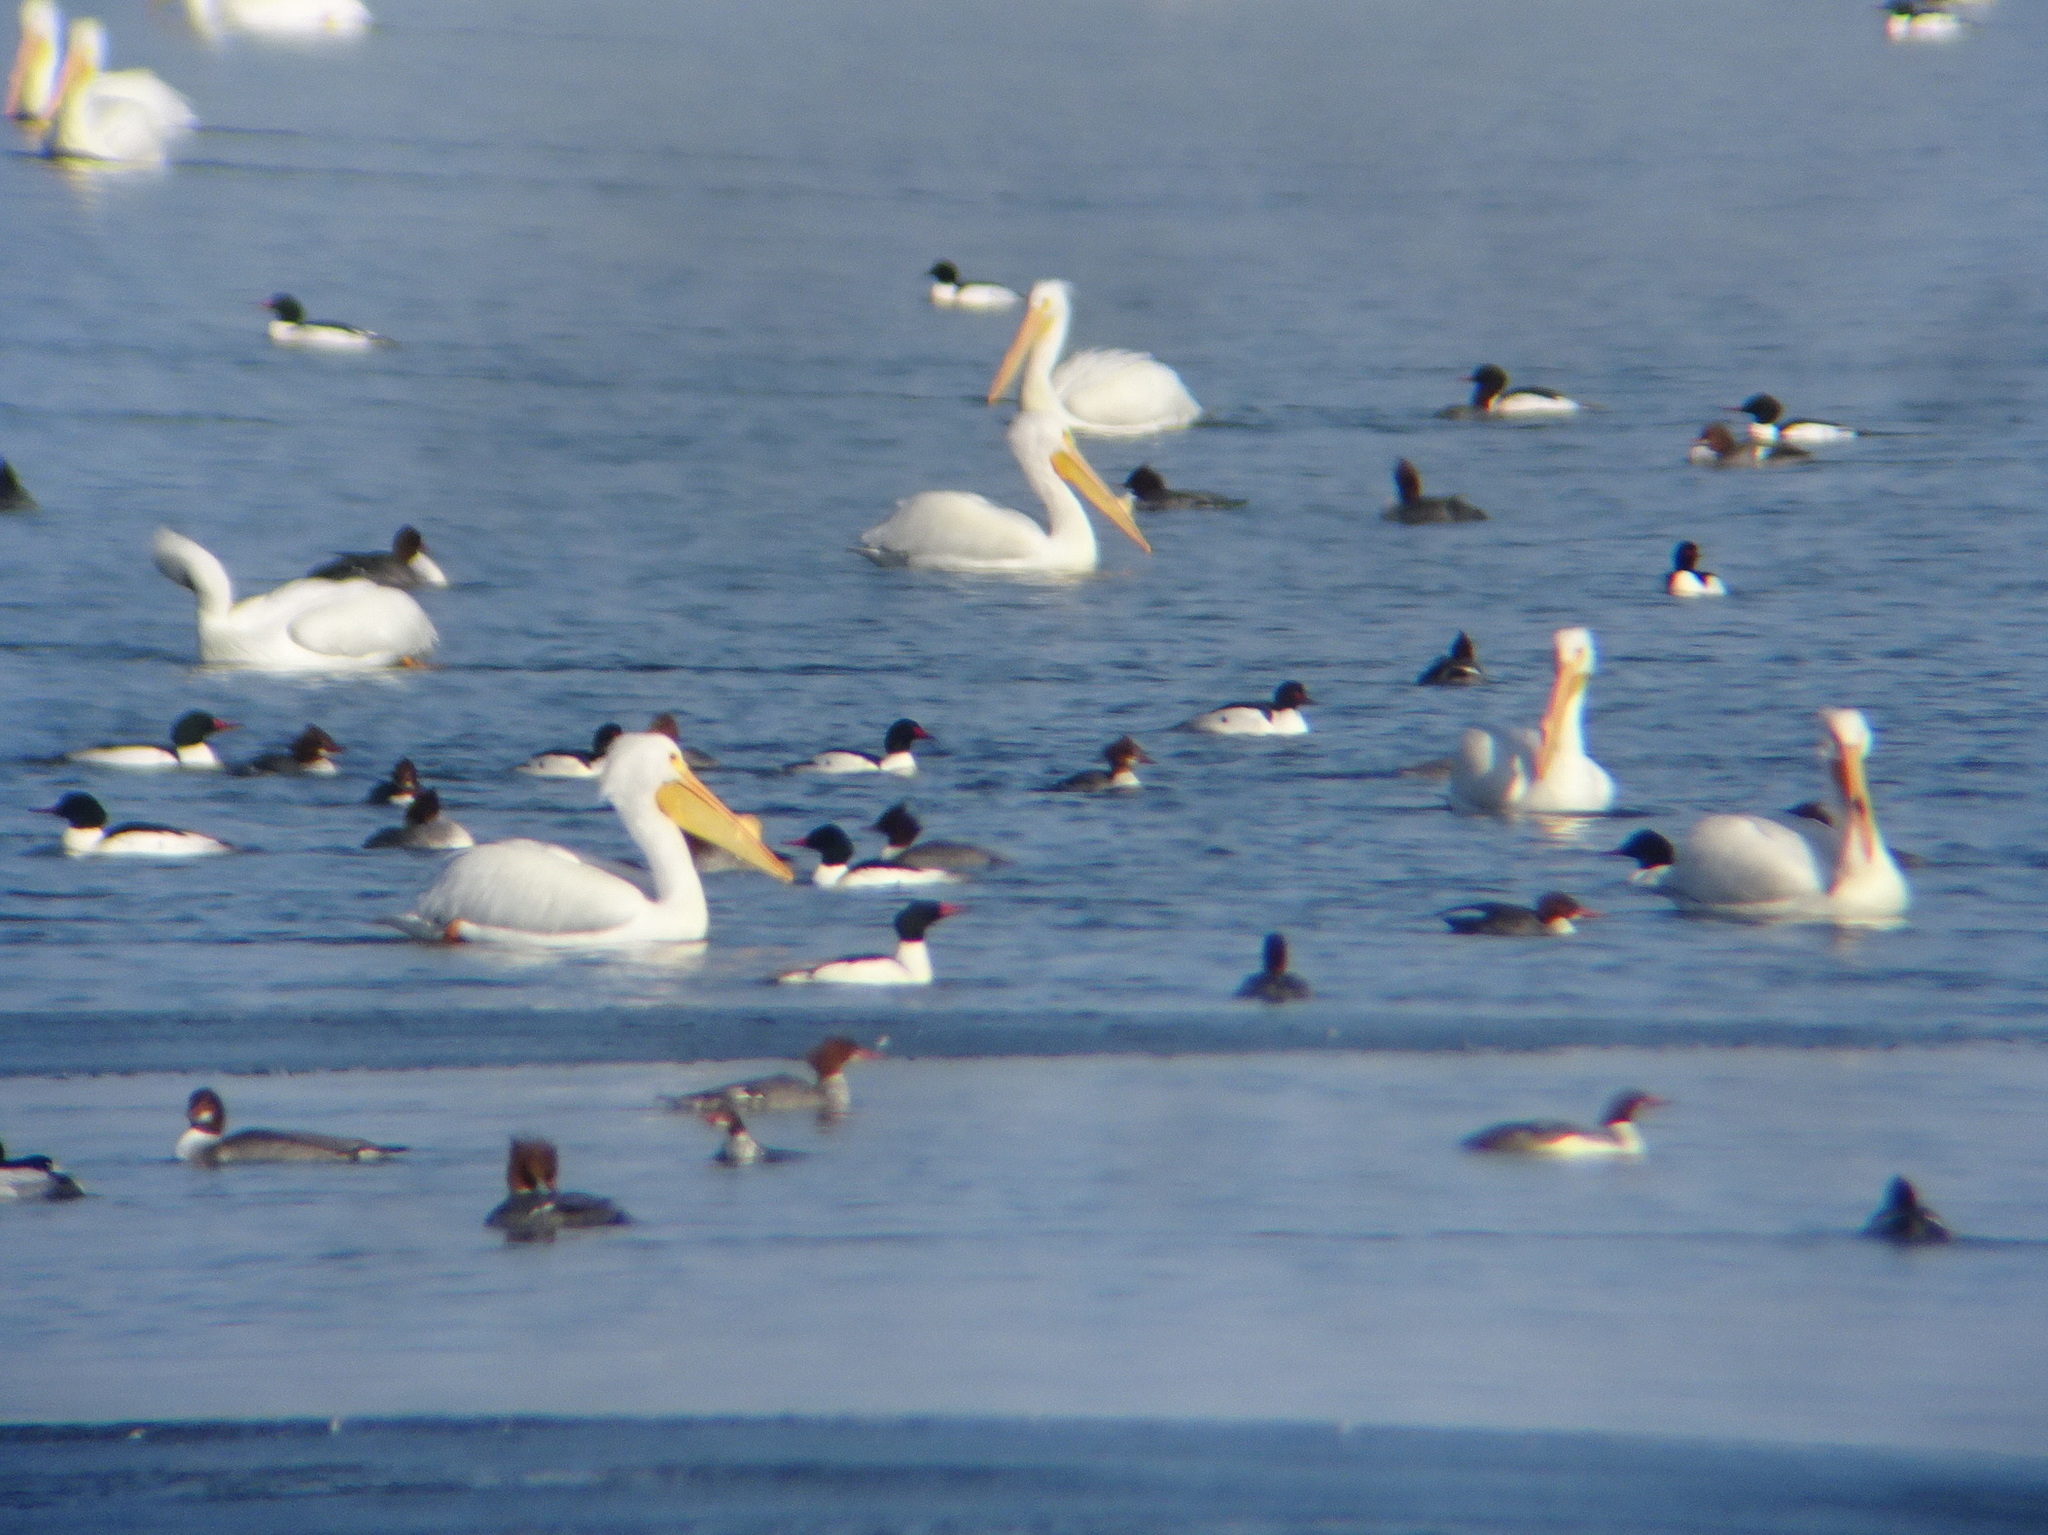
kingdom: Animalia
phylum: Chordata
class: Aves
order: Anseriformes
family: Anatidae
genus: Mergus
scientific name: Mergus merganser
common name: Common merganser
